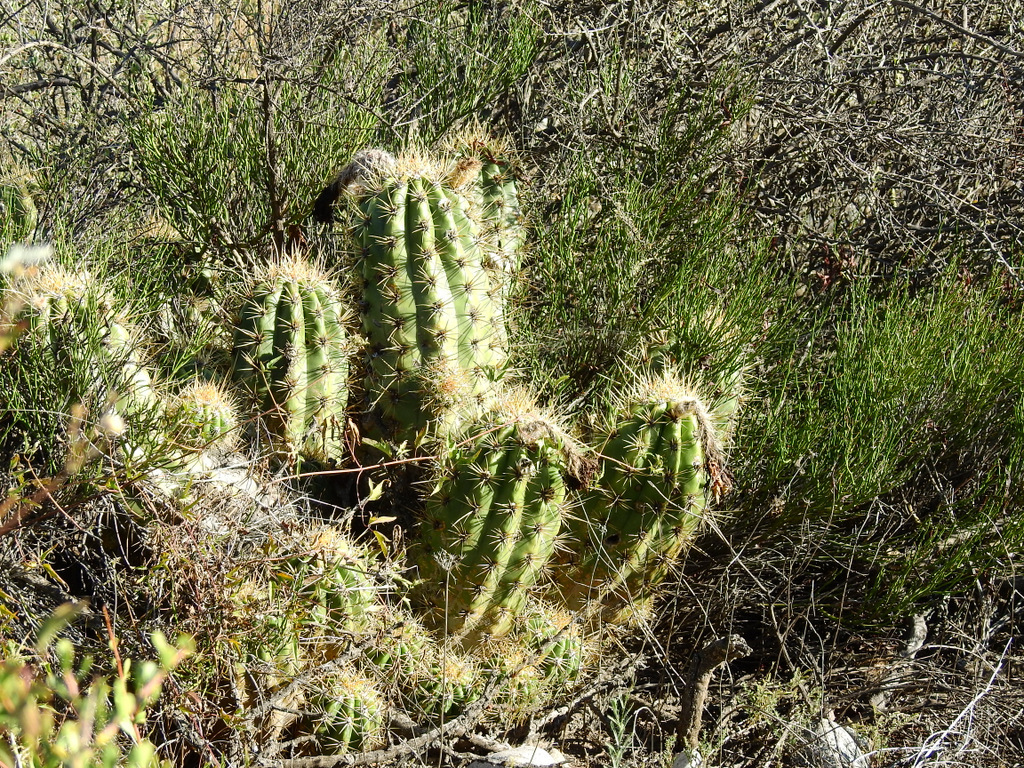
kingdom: Plantae
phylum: Tracheophyta
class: Magnoliopsida
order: Caryophyllales
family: Cactaceae
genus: Soehrensia
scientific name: Soehrensia candicans
